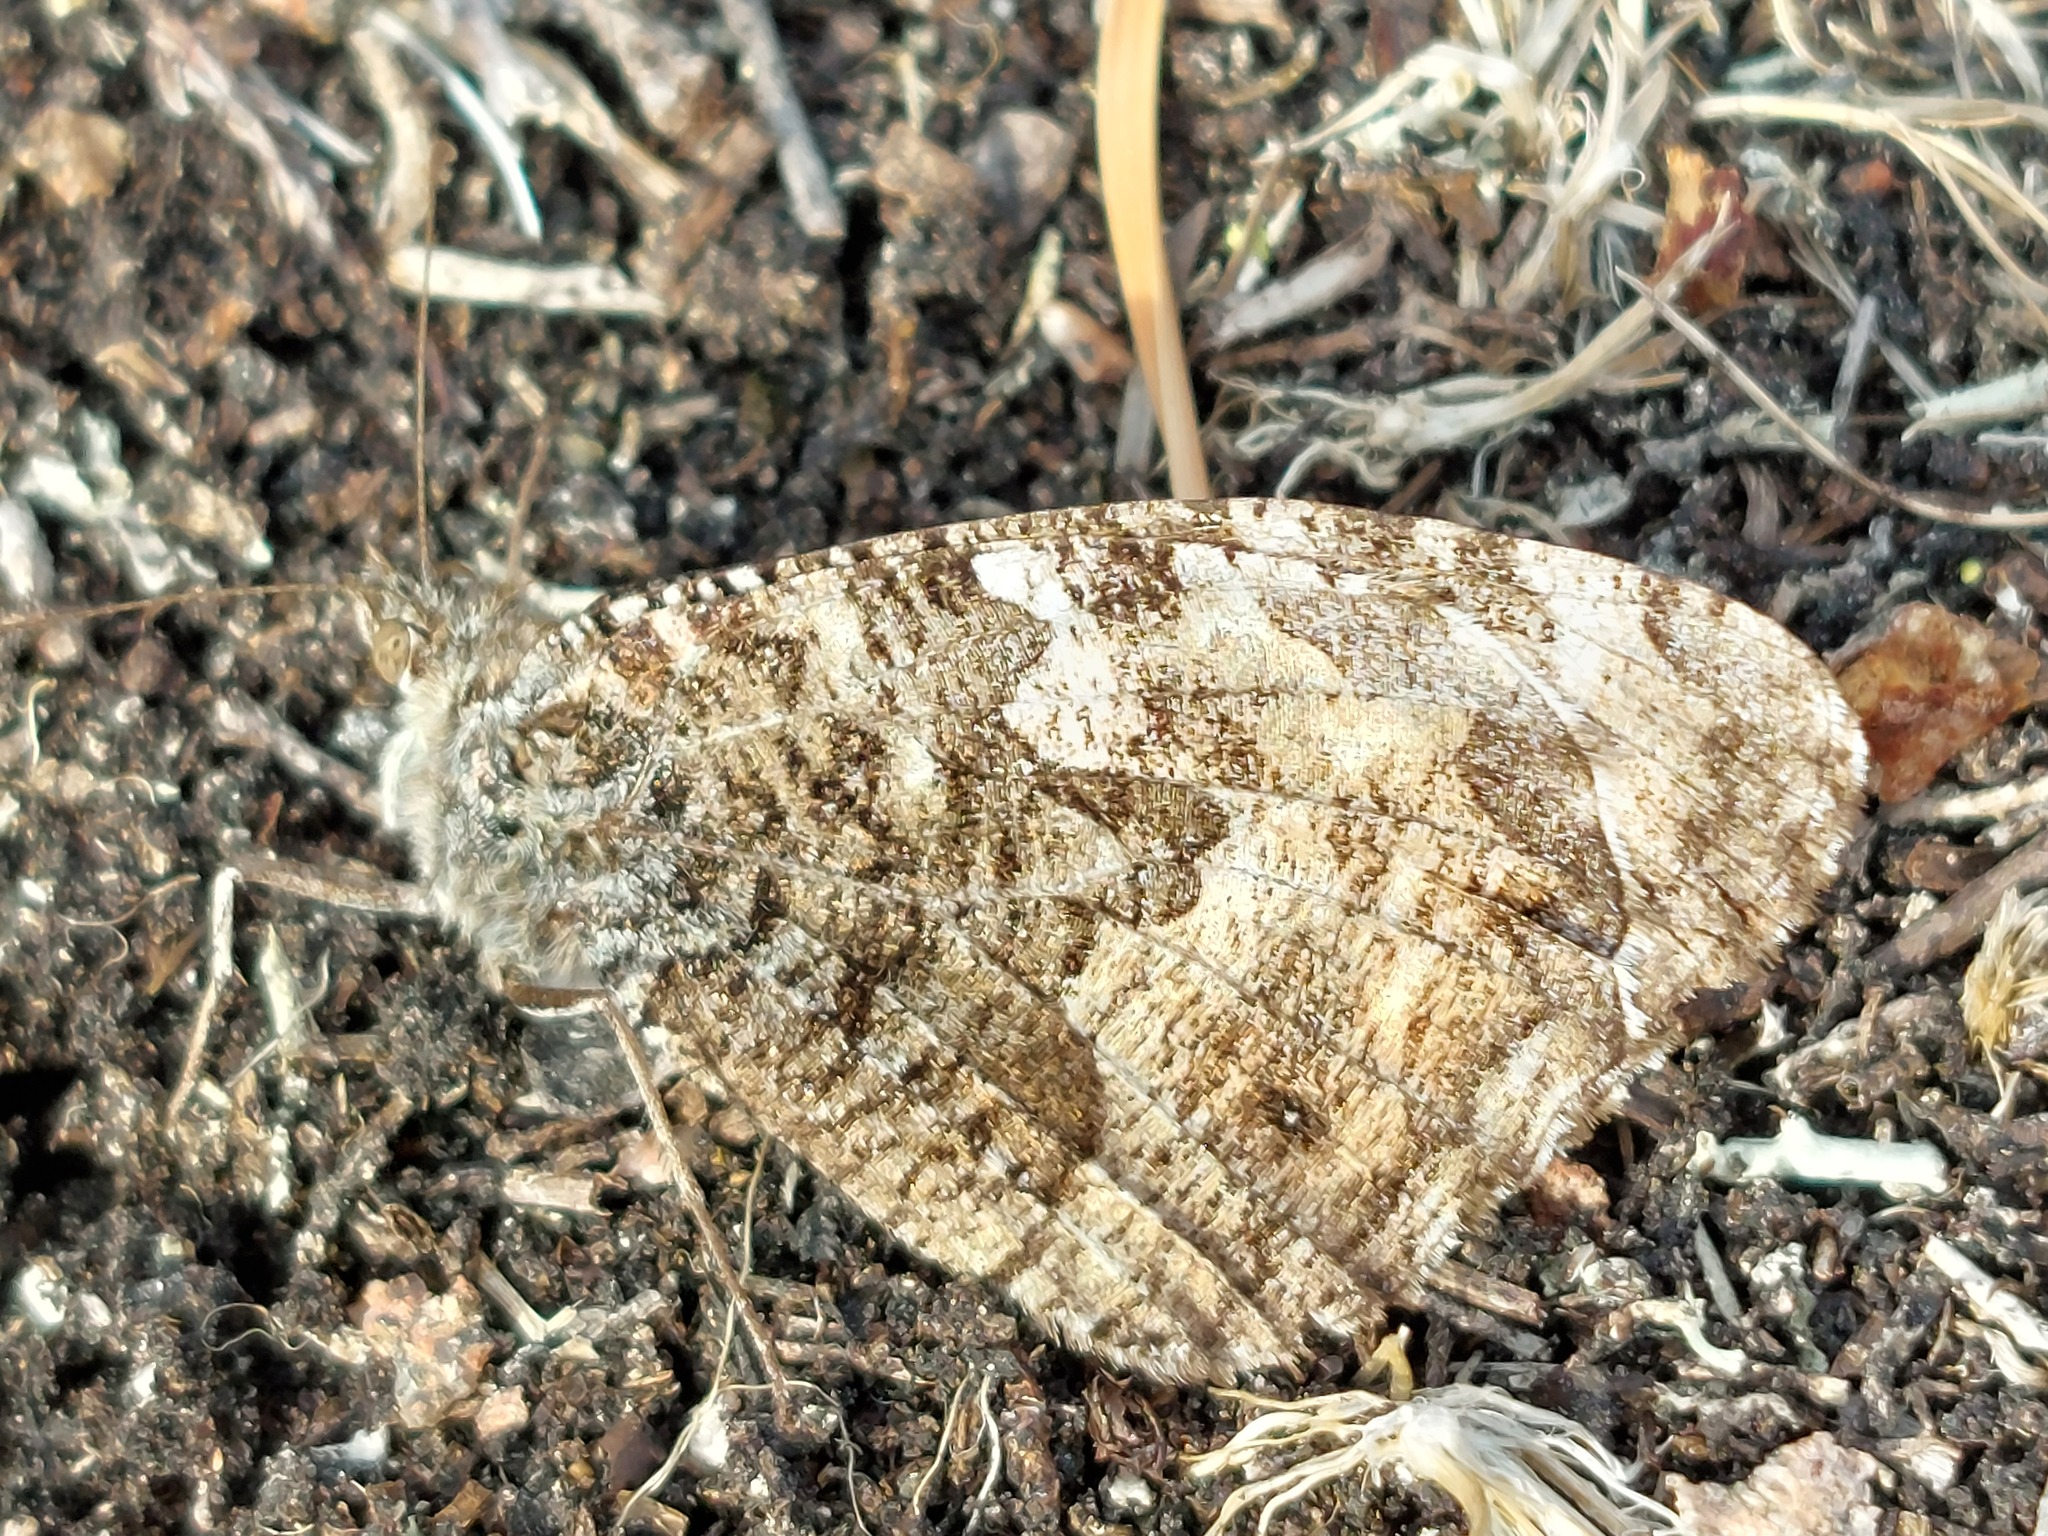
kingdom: Animalia
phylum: Arthropoda
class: Insecta
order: Lepidoptera
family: Nymphalidae
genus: Hipparchia
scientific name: Hipparchia semele
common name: Grayling
